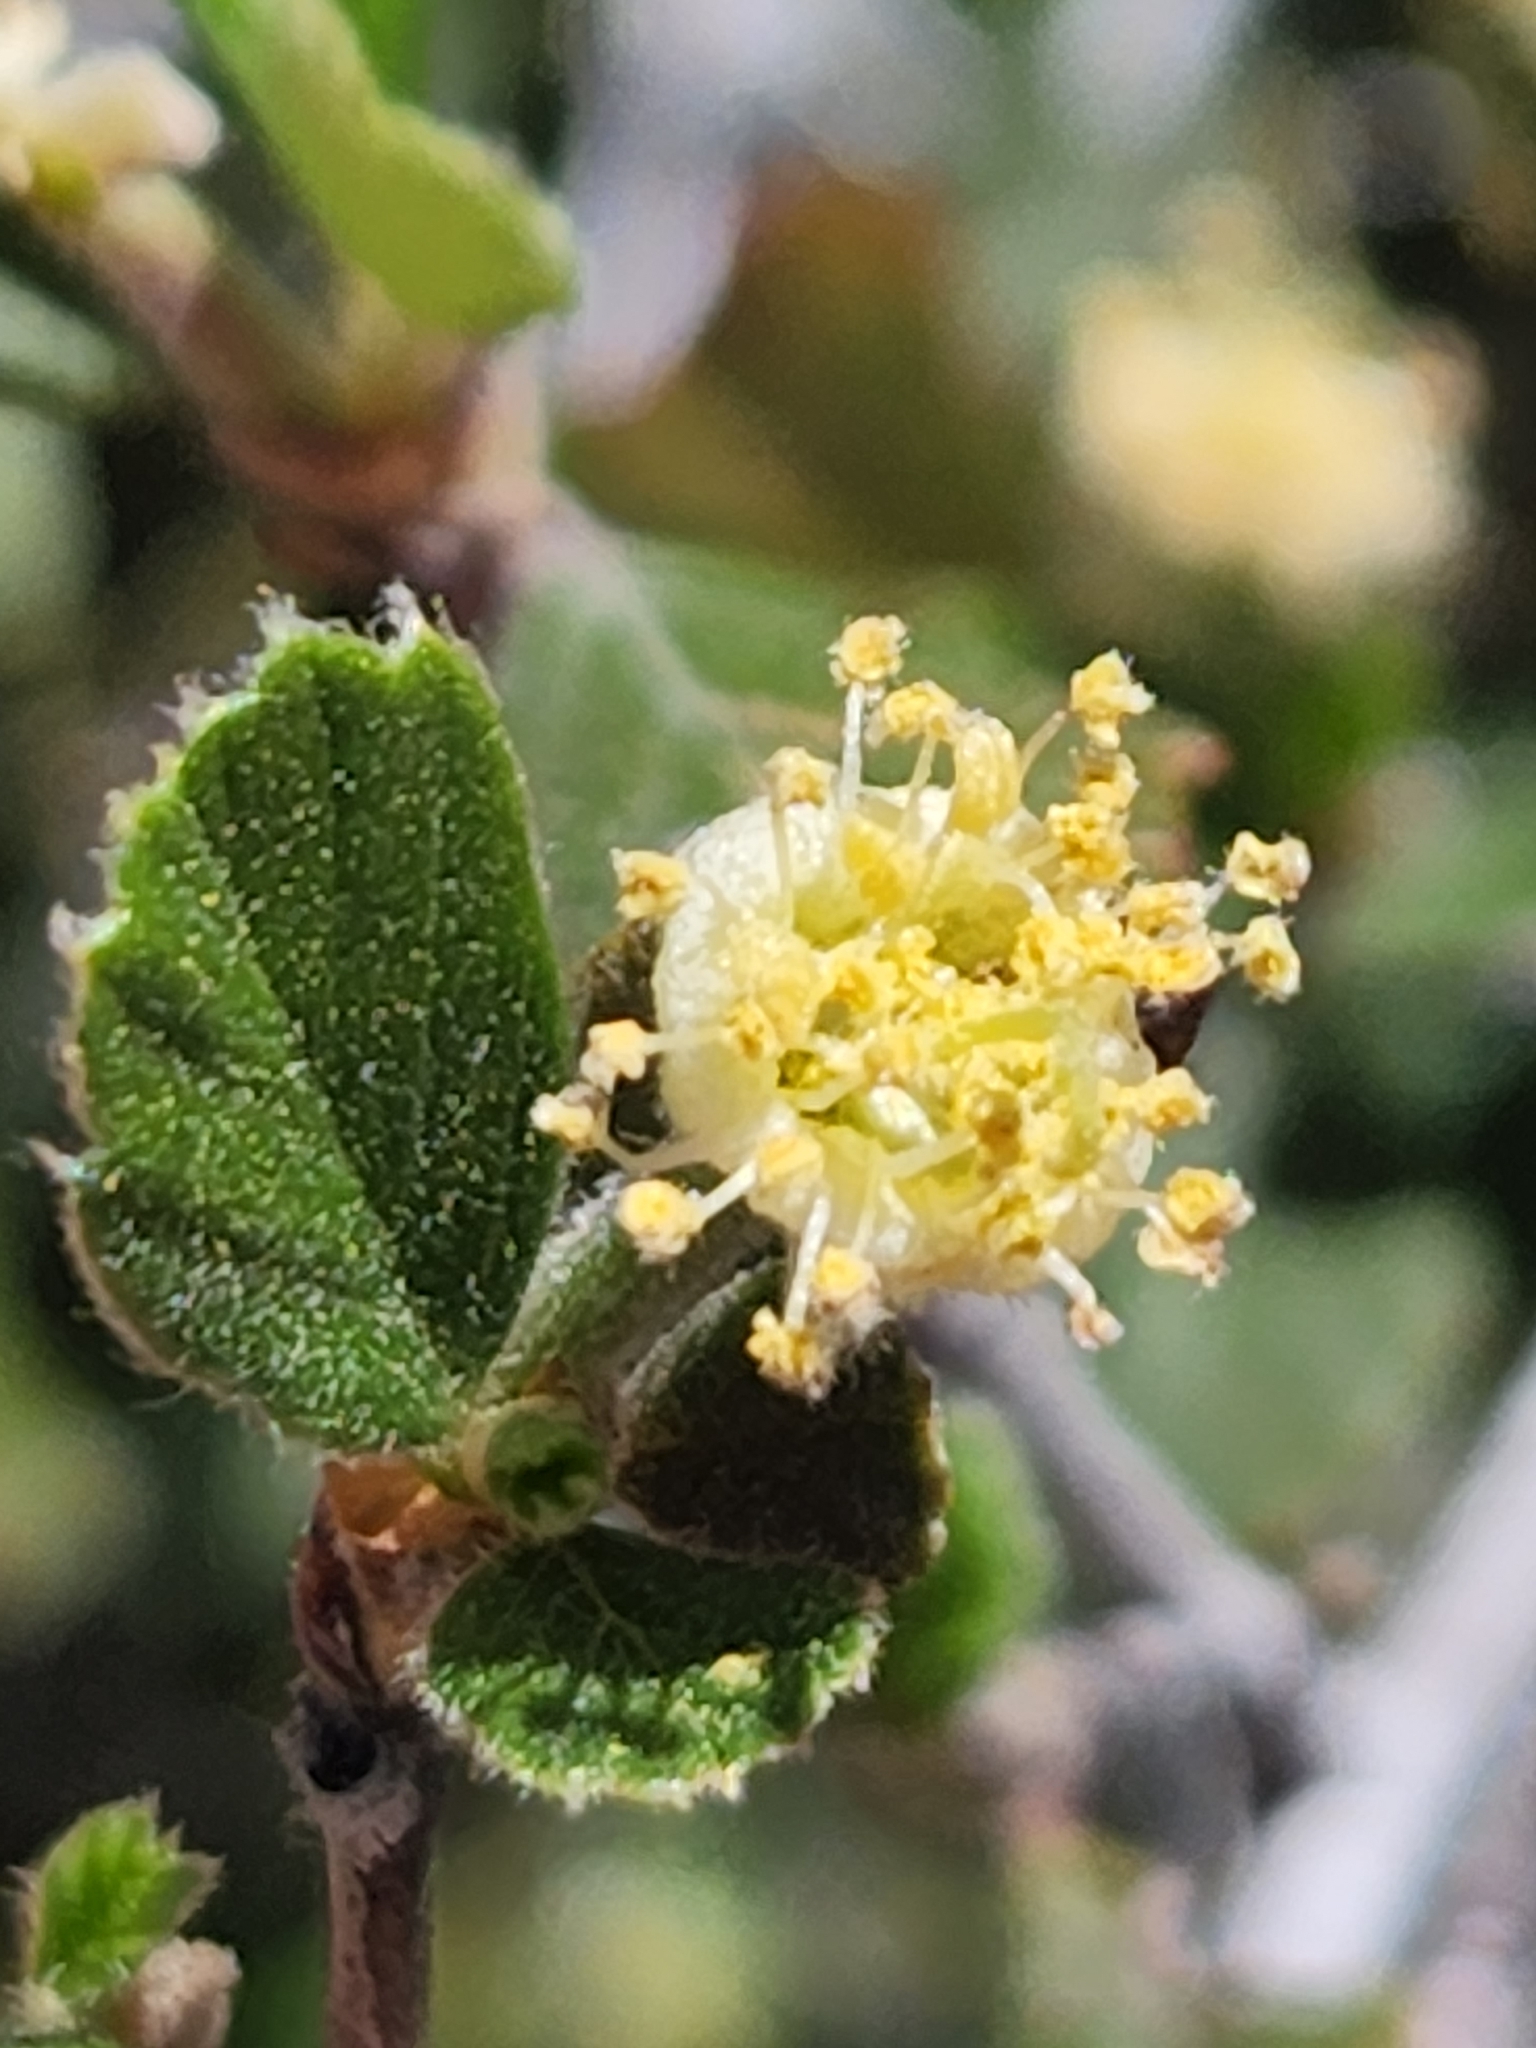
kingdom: Plantae
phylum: Tracheophyta
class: Magnoliopsida
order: Rosales
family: Rosaceae
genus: Cercocarpus
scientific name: Cercocarpus betuloides
